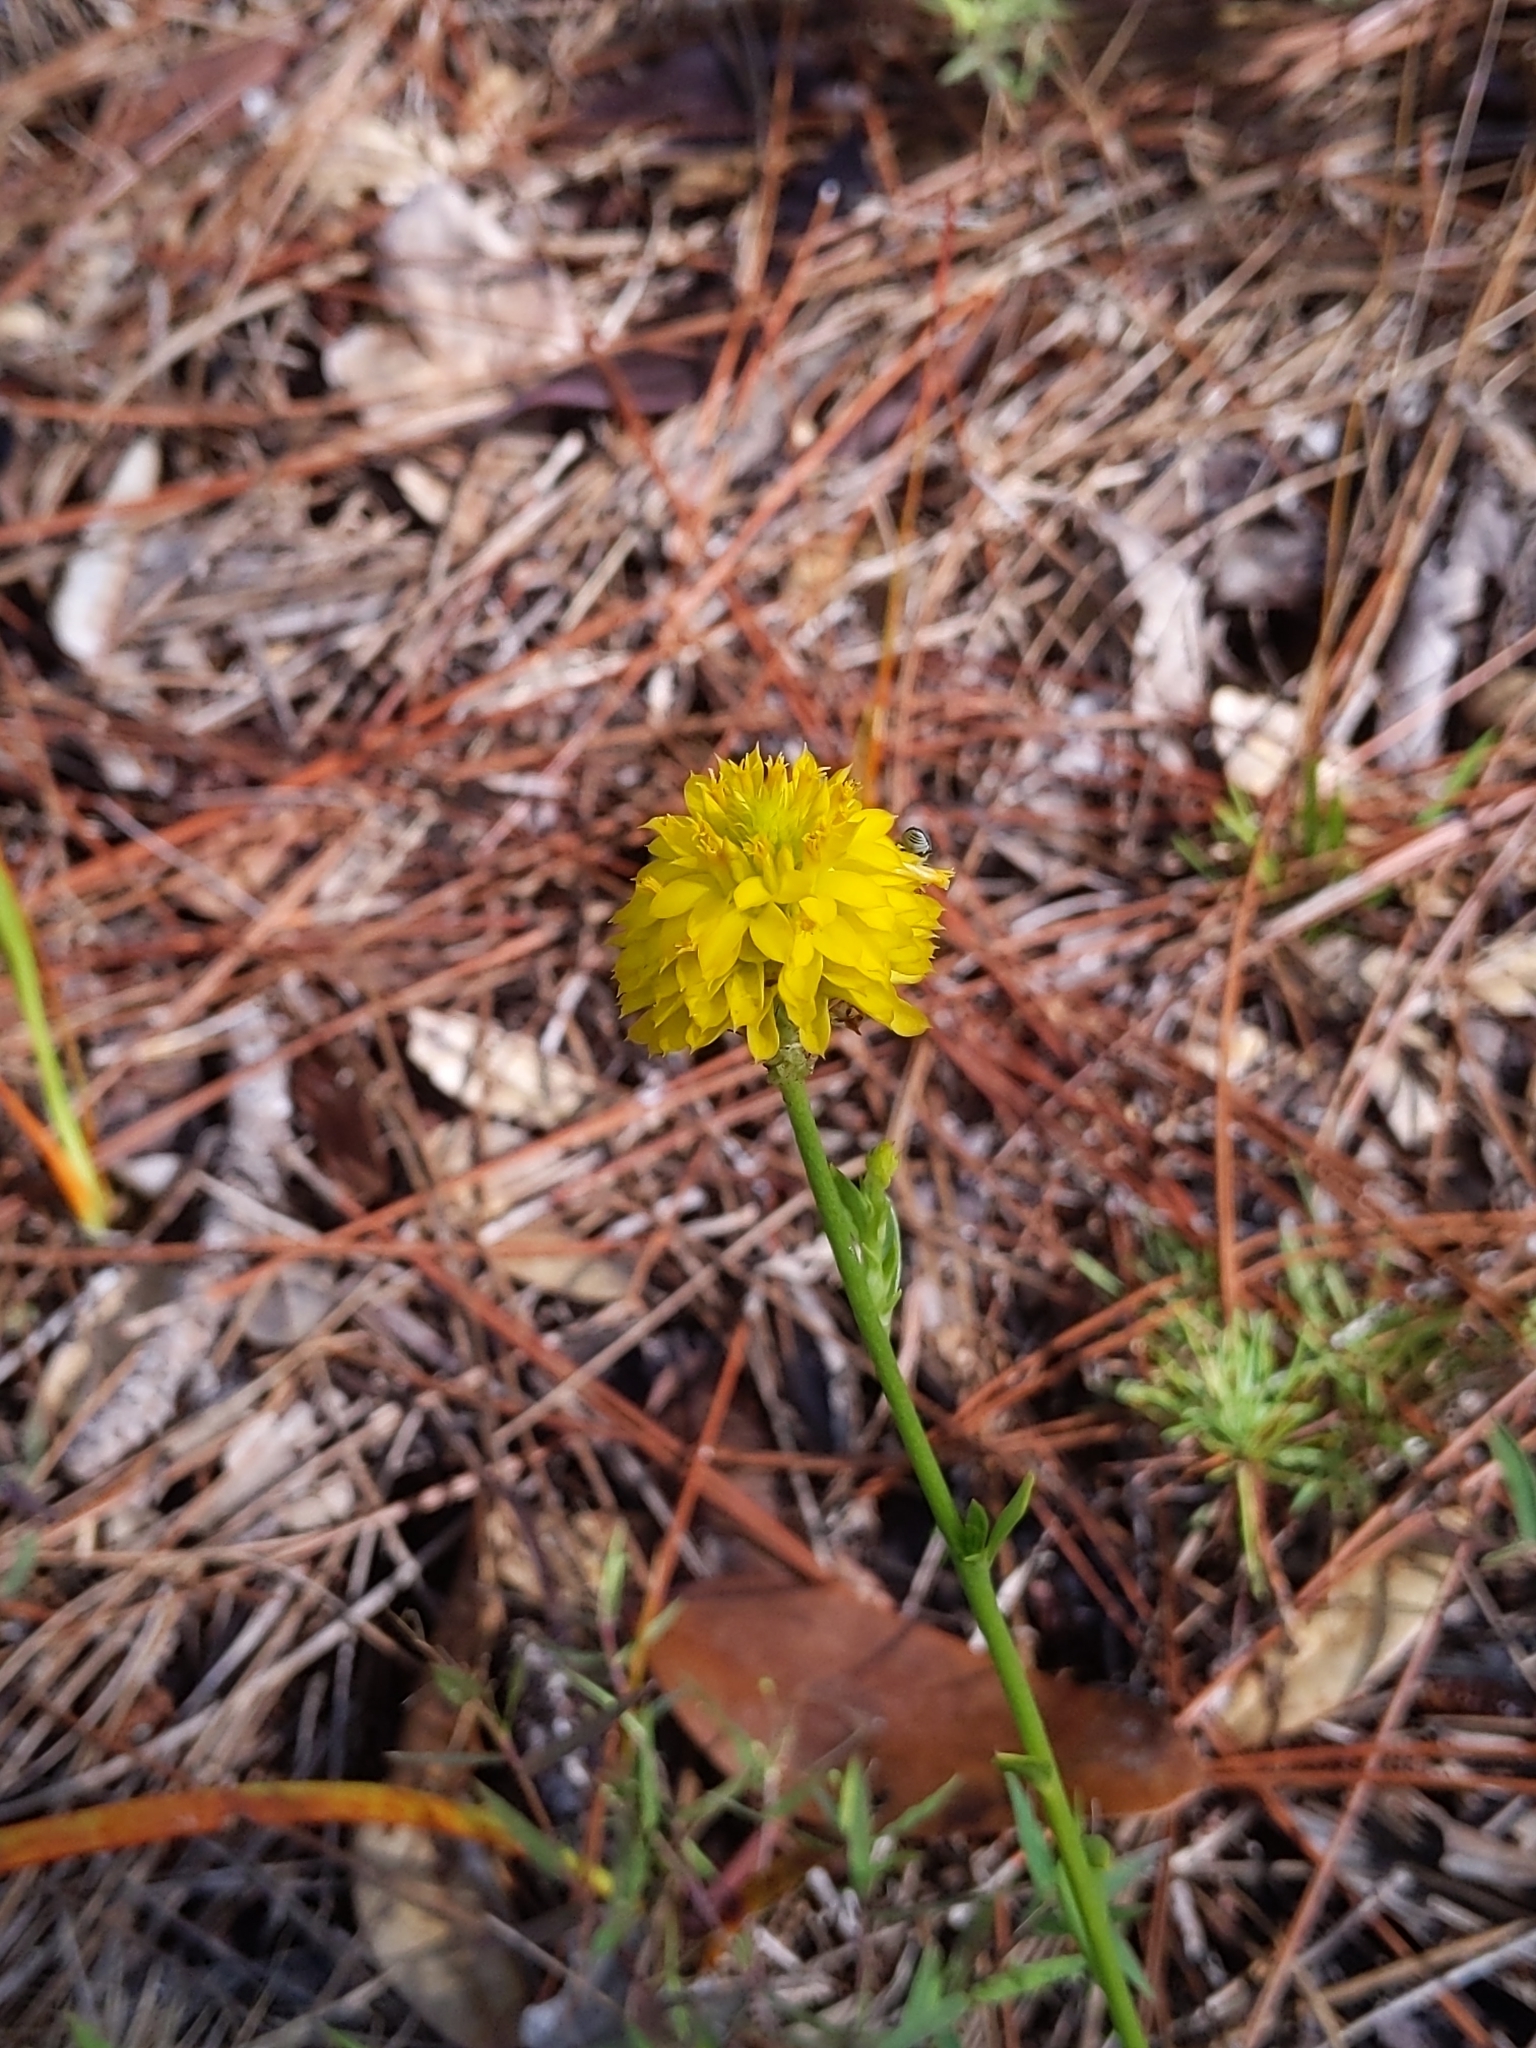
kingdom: Plantae
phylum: Tracheophyta
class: Magnoliopsida
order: Fabales
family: Polygalaceae
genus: Polygala
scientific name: Polygala rugelii
